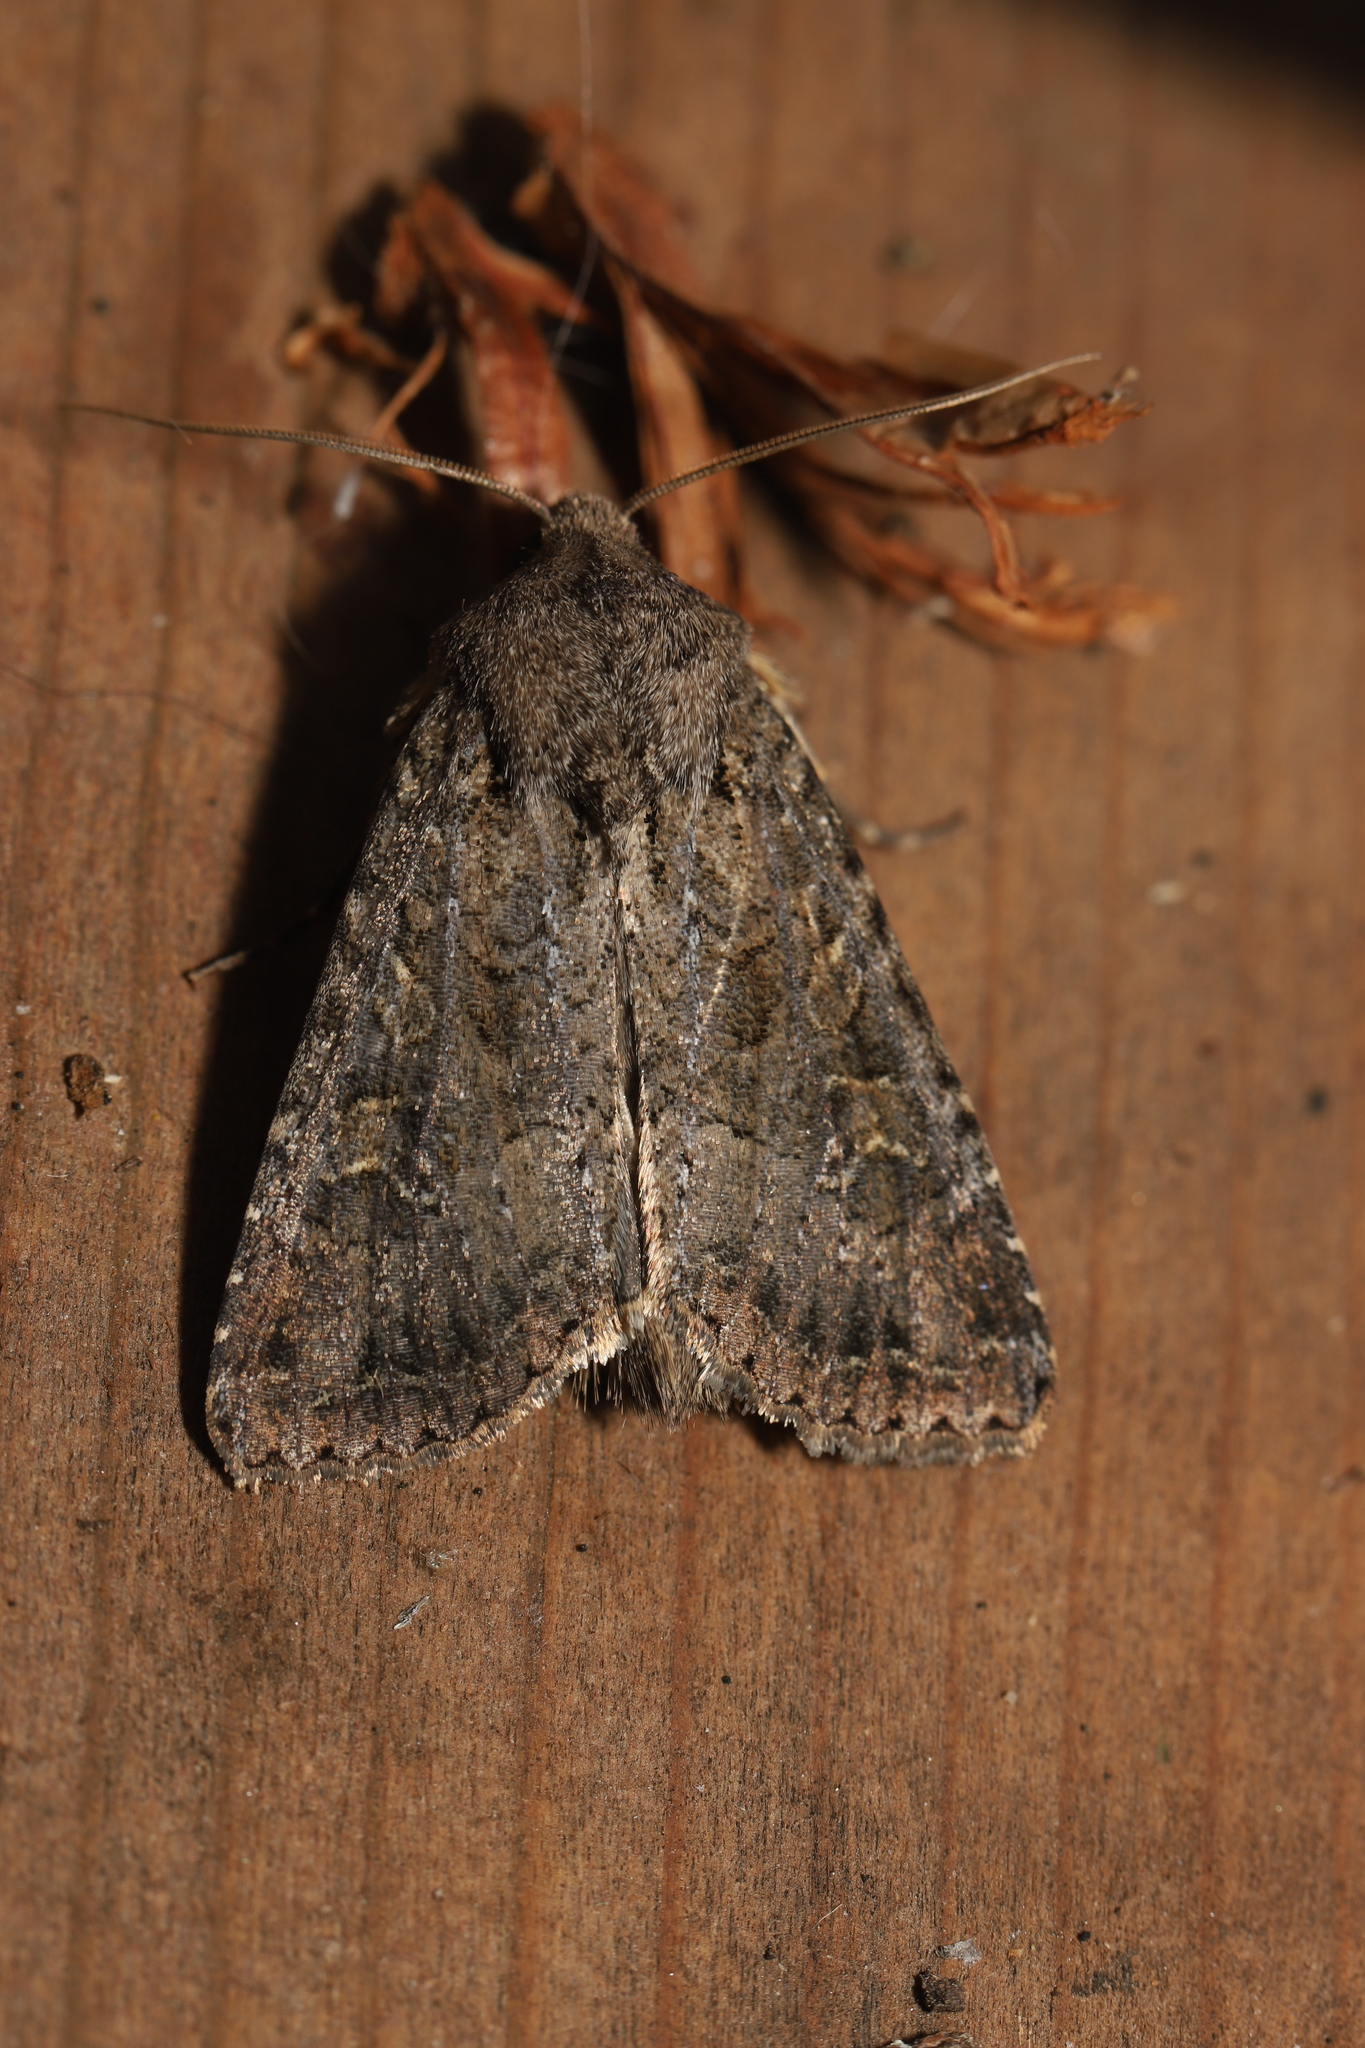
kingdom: Animalia
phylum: Arthropoda
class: Insecta
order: Lepidoptera
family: Noctuidae
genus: Apamea
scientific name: Apamea devastator
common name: Glassy cutworm
